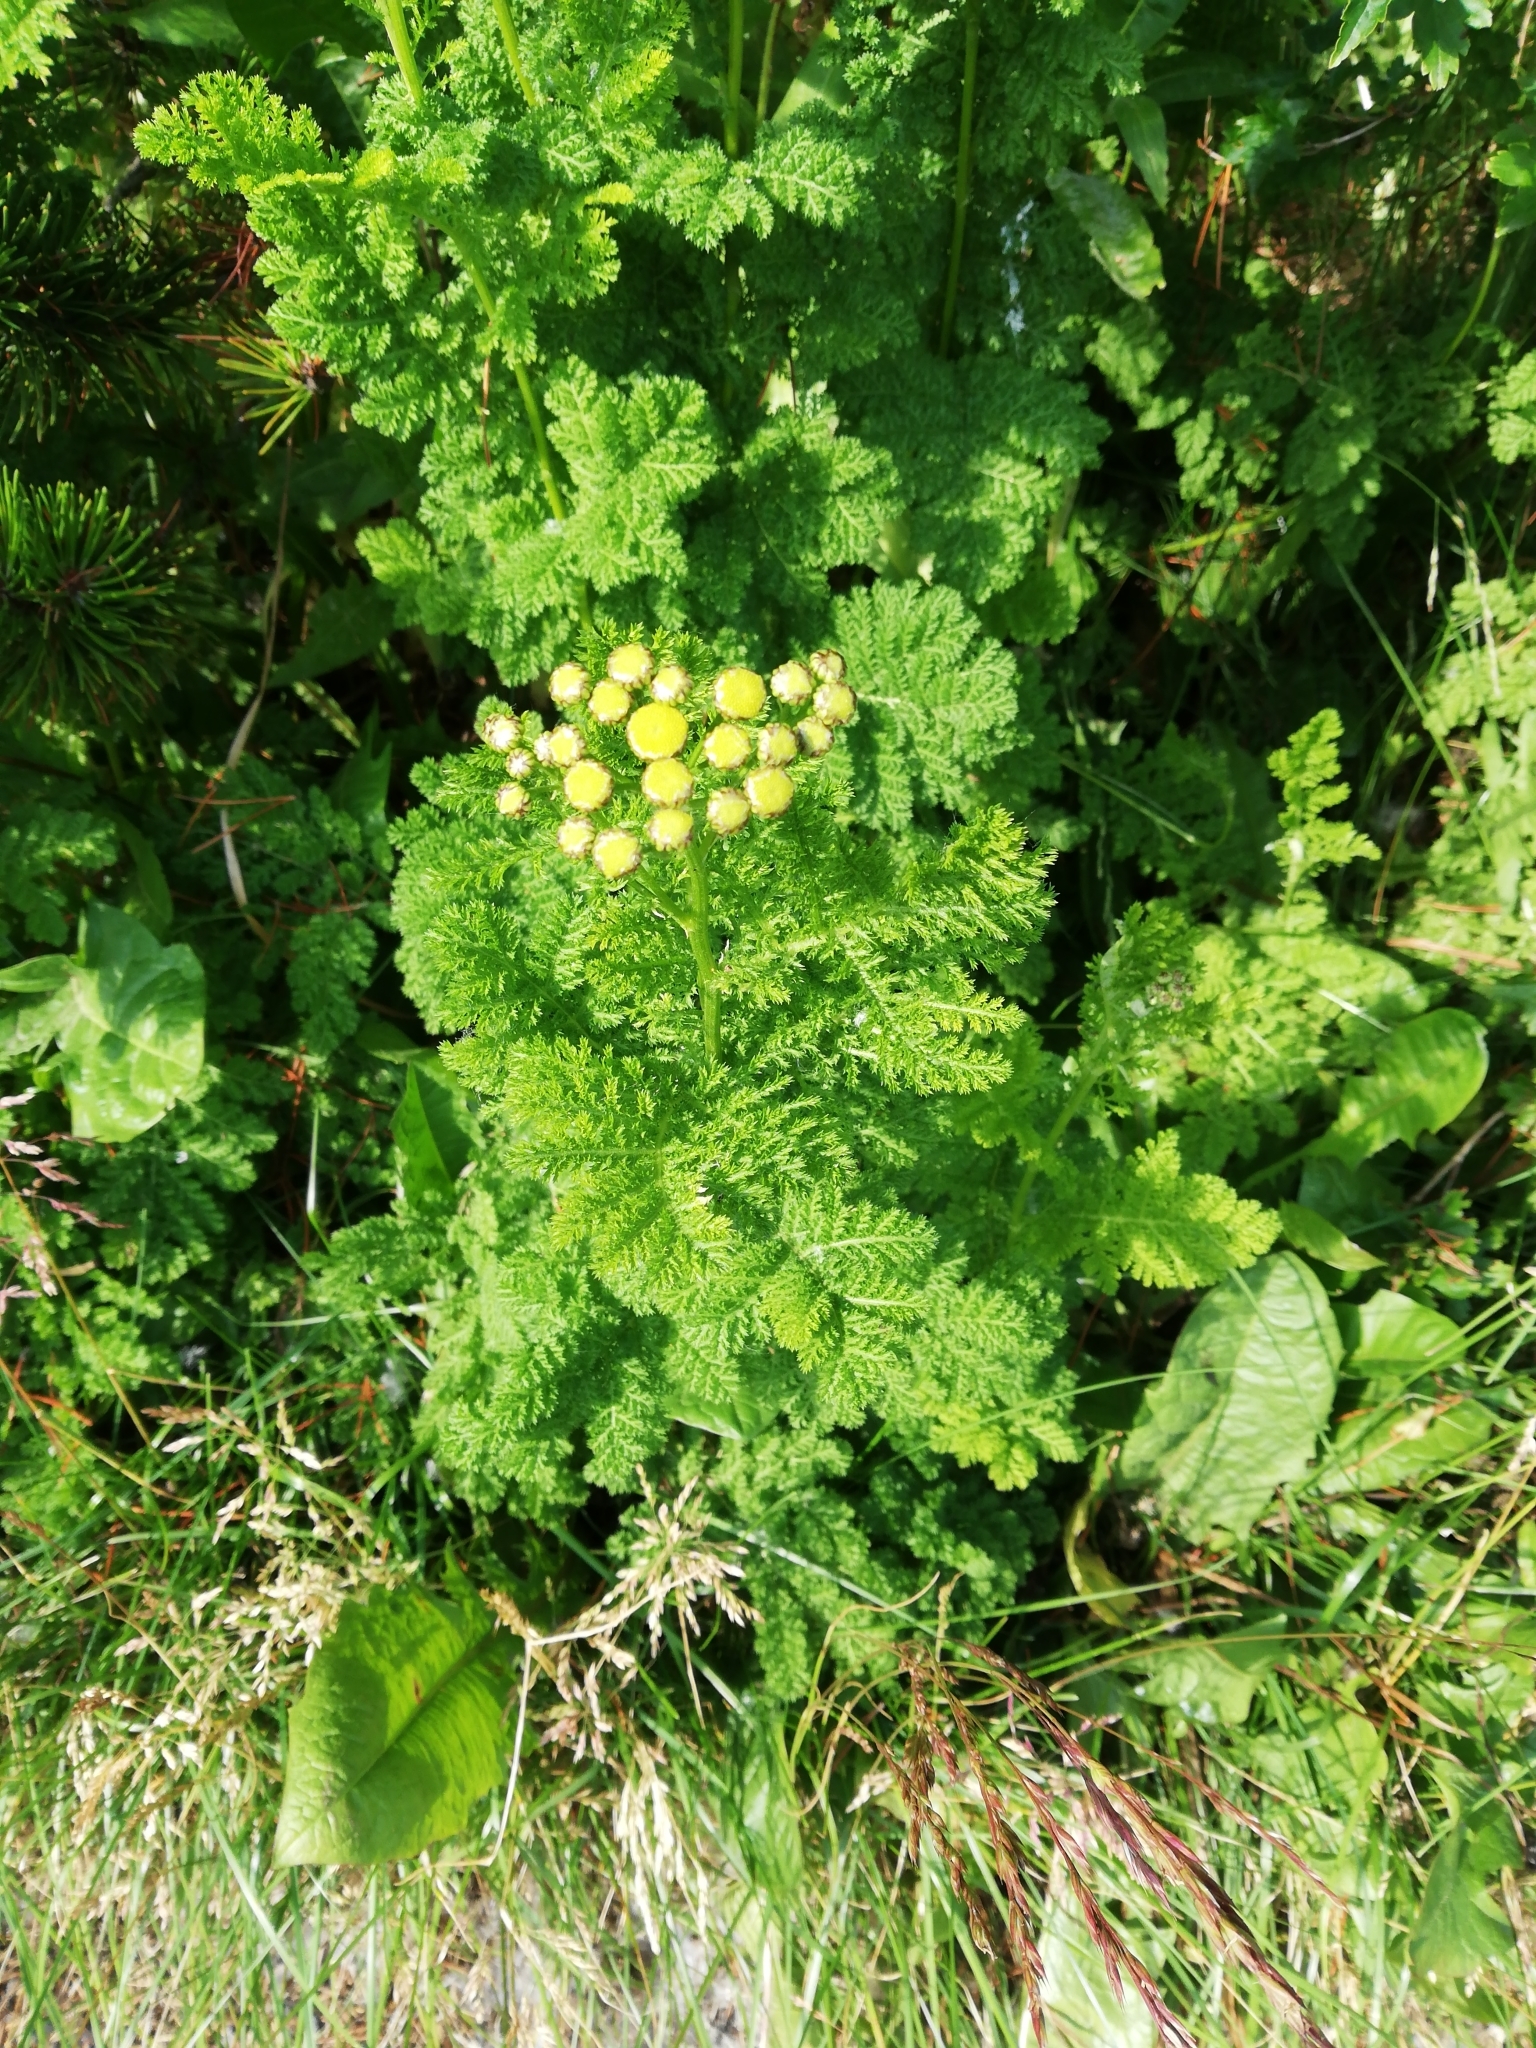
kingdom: Plantae
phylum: Tracheophyta
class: Magnoliopsida
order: Asterales
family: Asteraceae
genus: Tanacetum
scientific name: Tanacetum vulgare
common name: Common tansy
